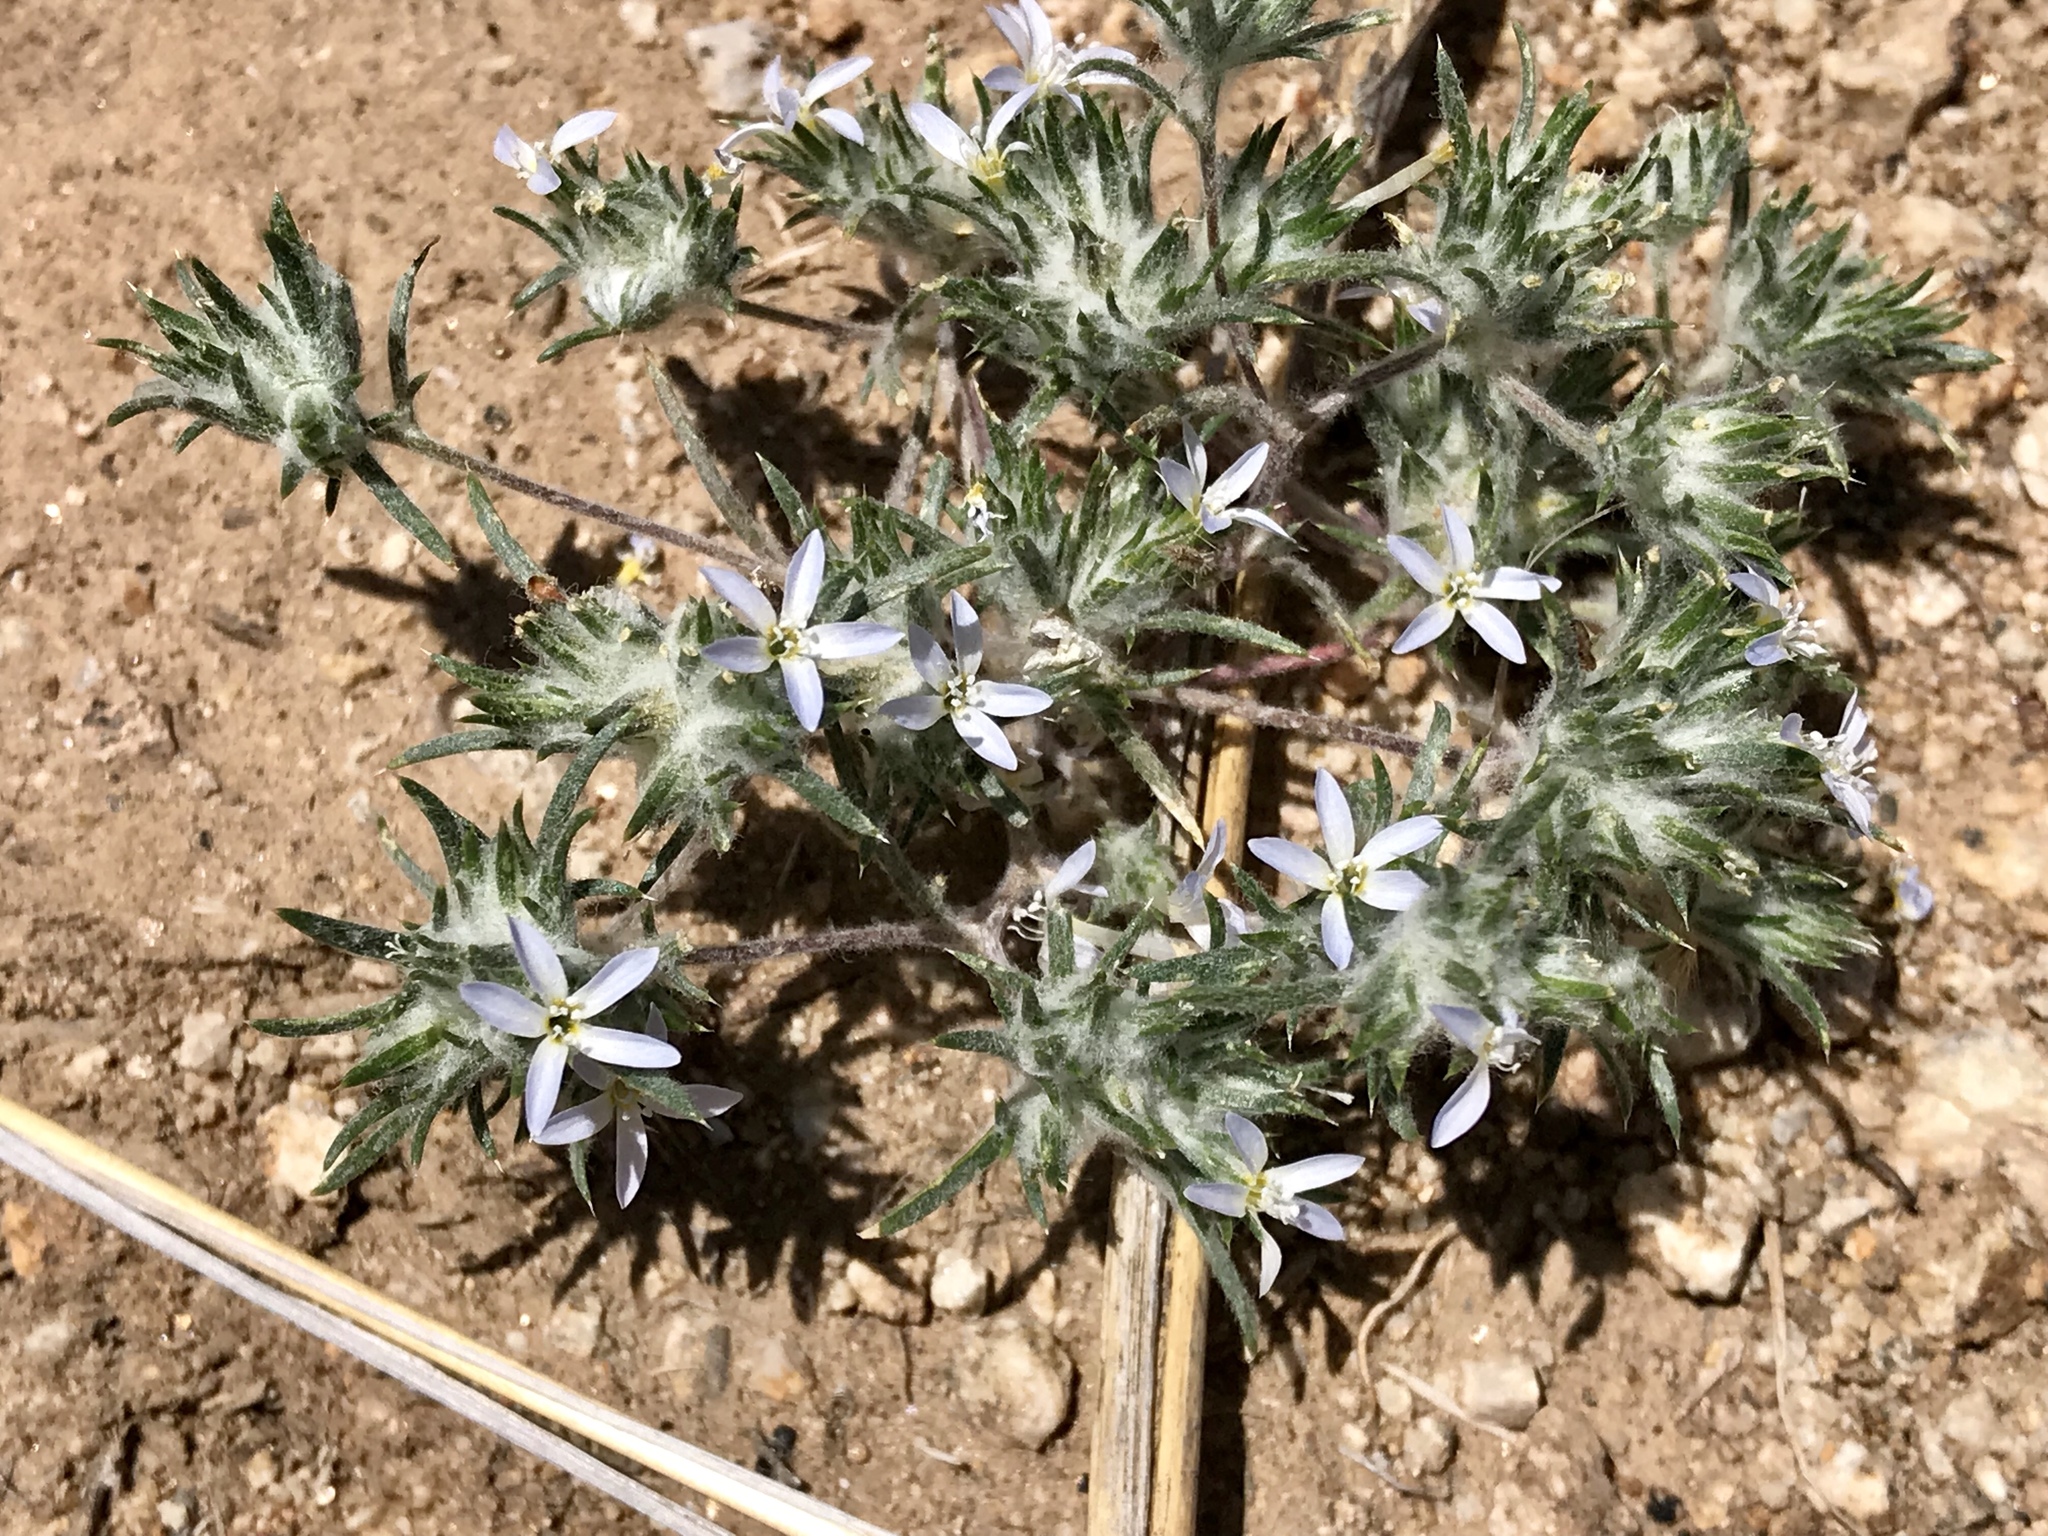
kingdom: Plantae
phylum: Tracheophyta
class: Magnoliopsida
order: Ericales
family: Polemoniaceae
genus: Eriastrum
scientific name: Eriastrum diffusum
